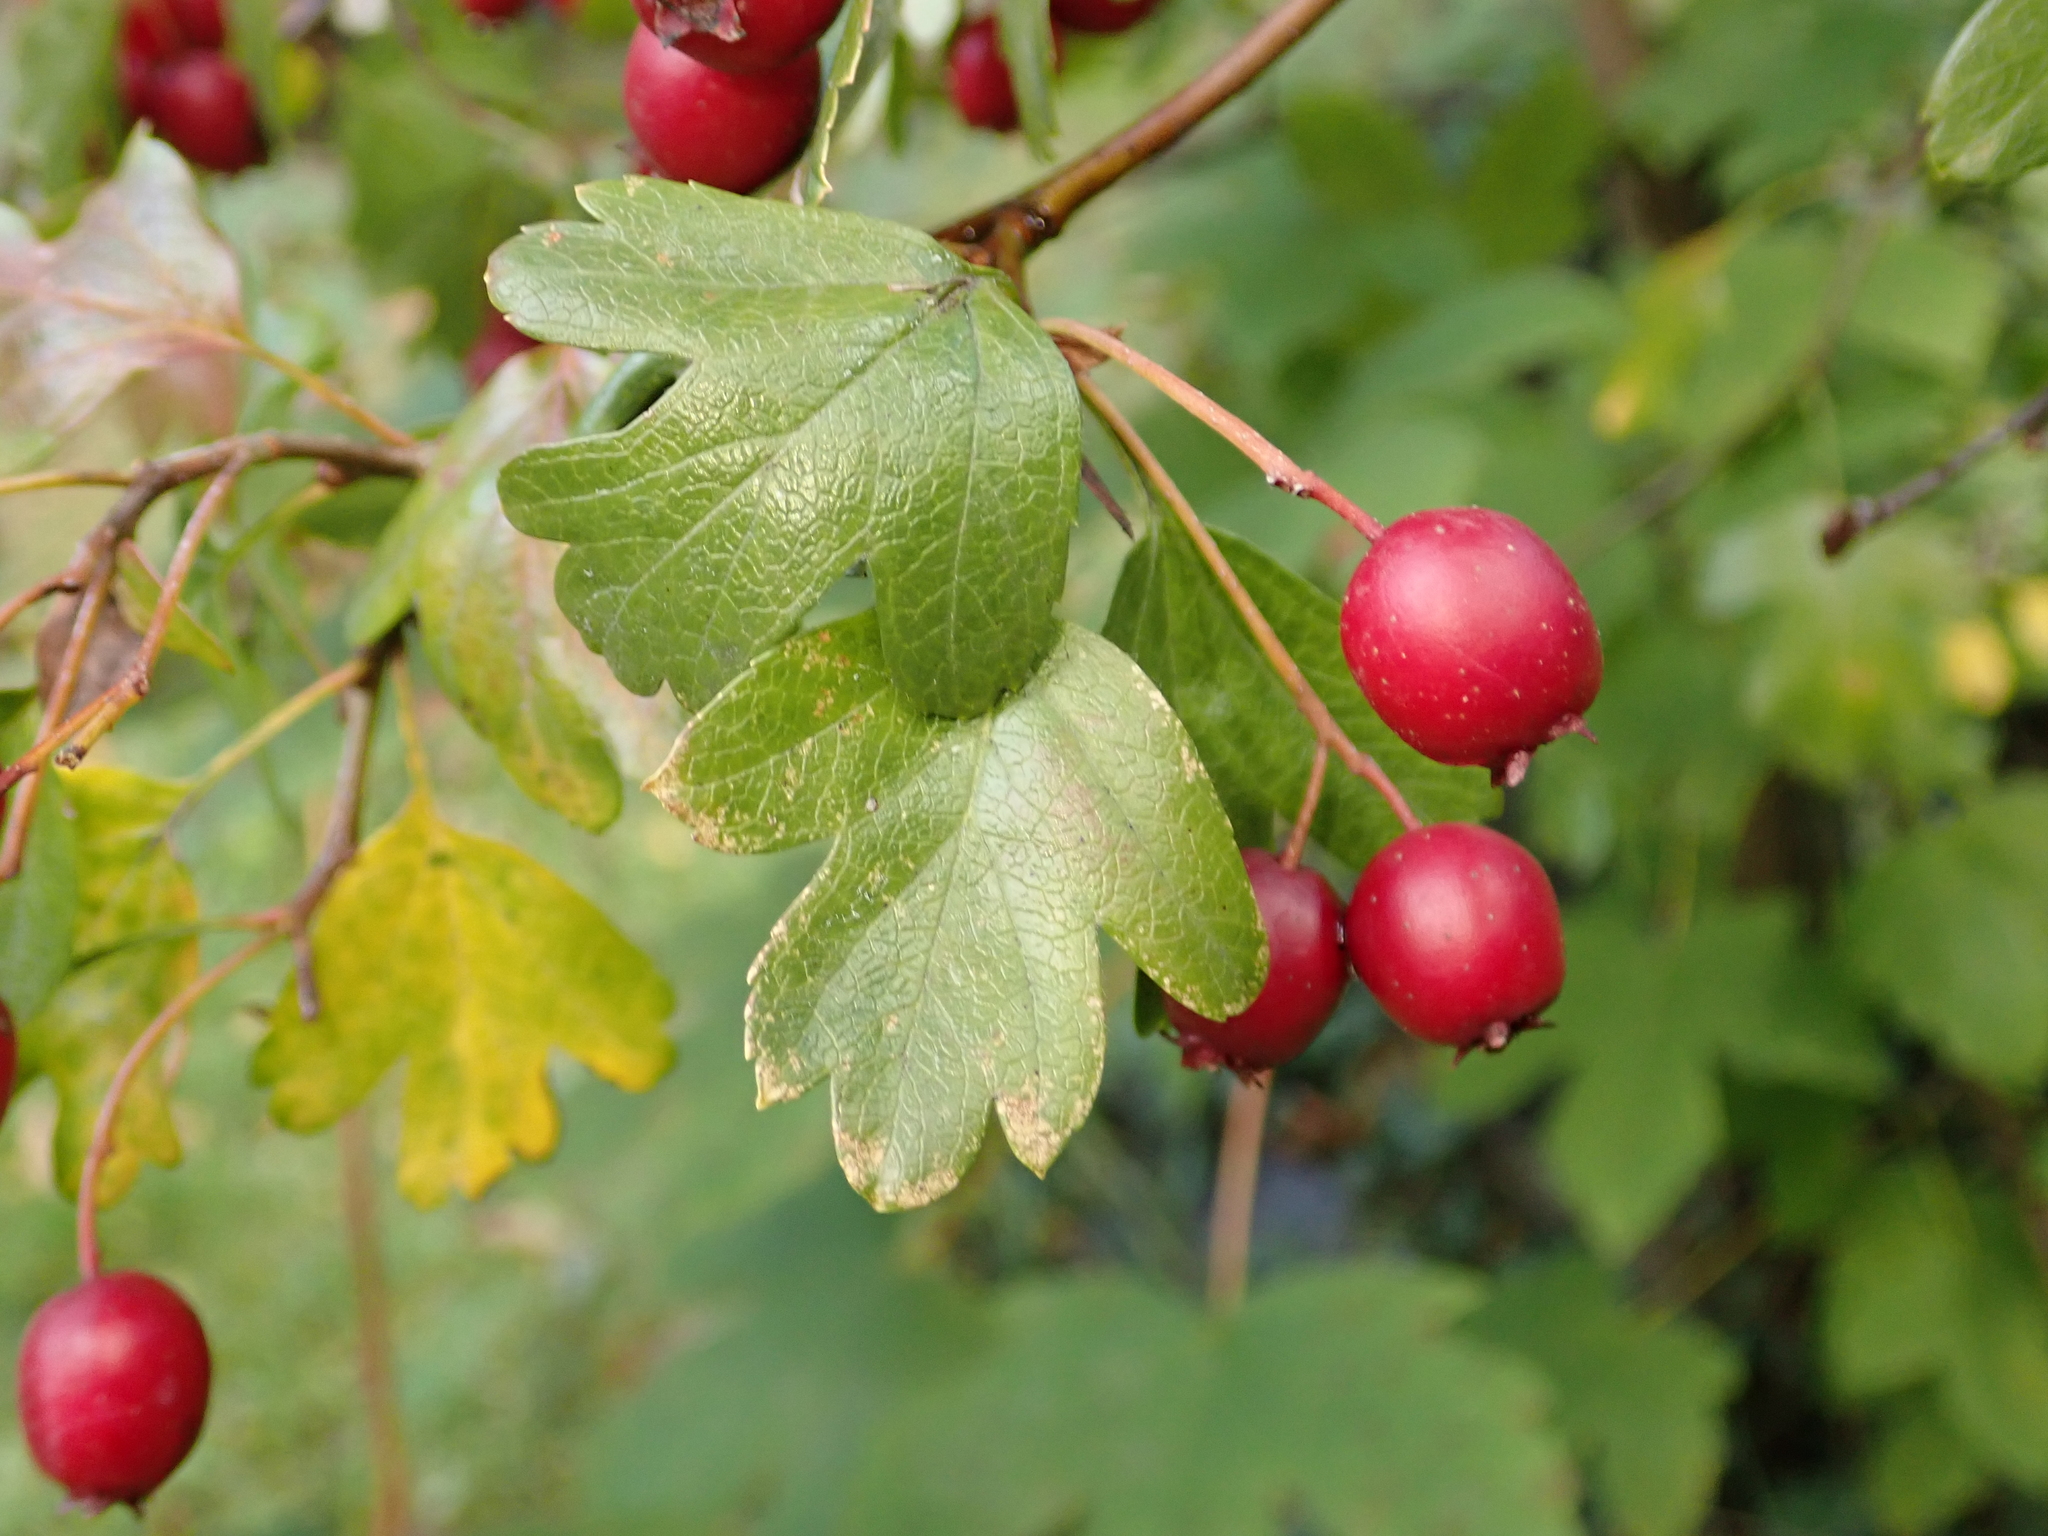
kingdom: Plantae
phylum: Tracheophyta
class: Magnoliopsida
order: Rosales
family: Rosaceae
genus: Crataegus
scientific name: Crataegus monogyna
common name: Hawthorn
